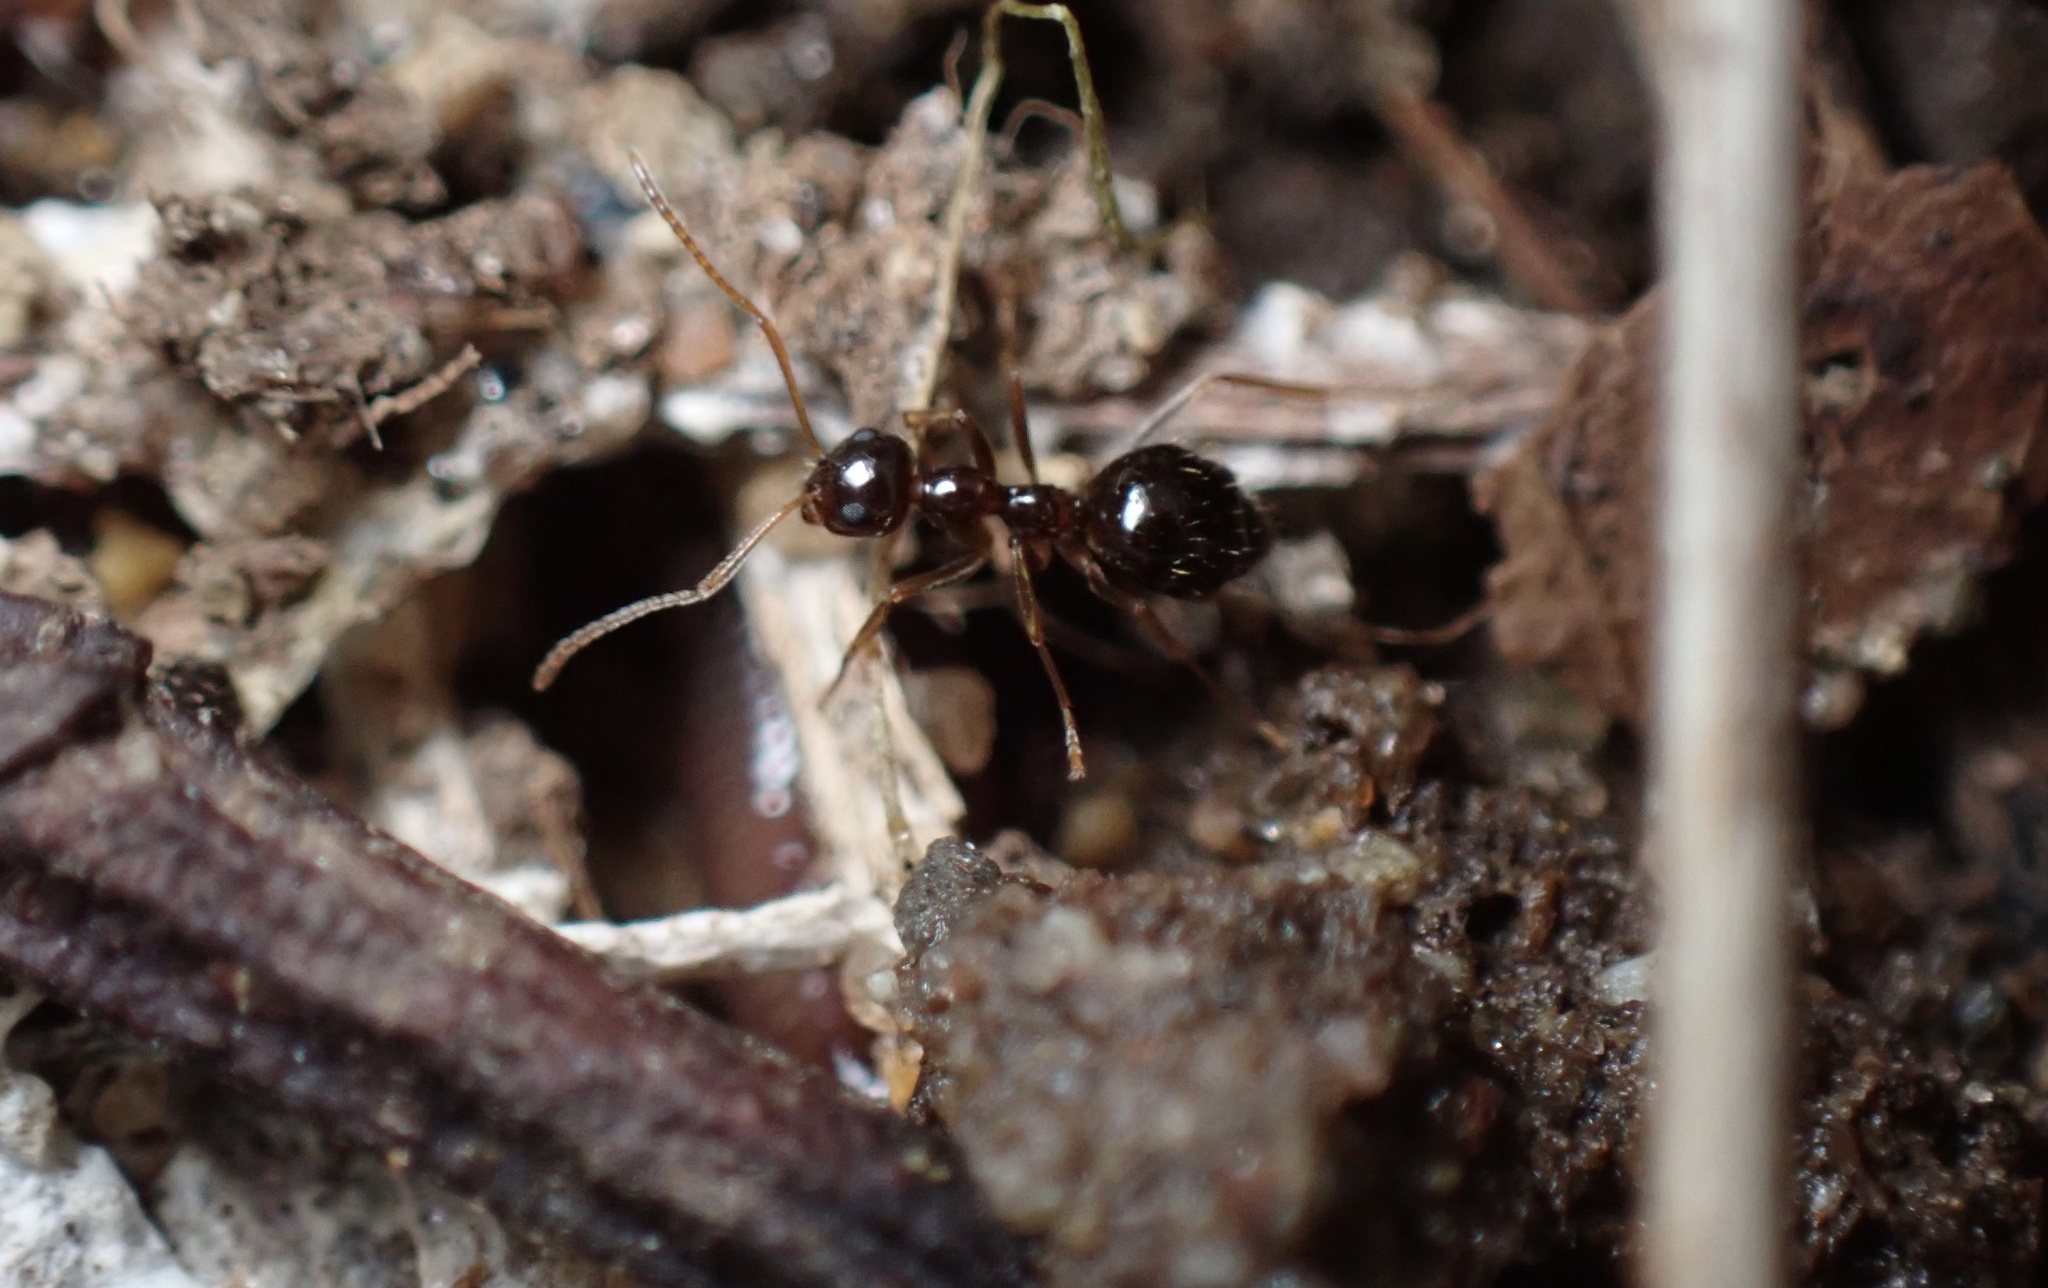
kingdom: Animalia
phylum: Arthropoda
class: Insecta
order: Hymenoptera
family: Formicidae
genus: Prenolepis
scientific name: Prenolepis imparis
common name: Small honey ant
